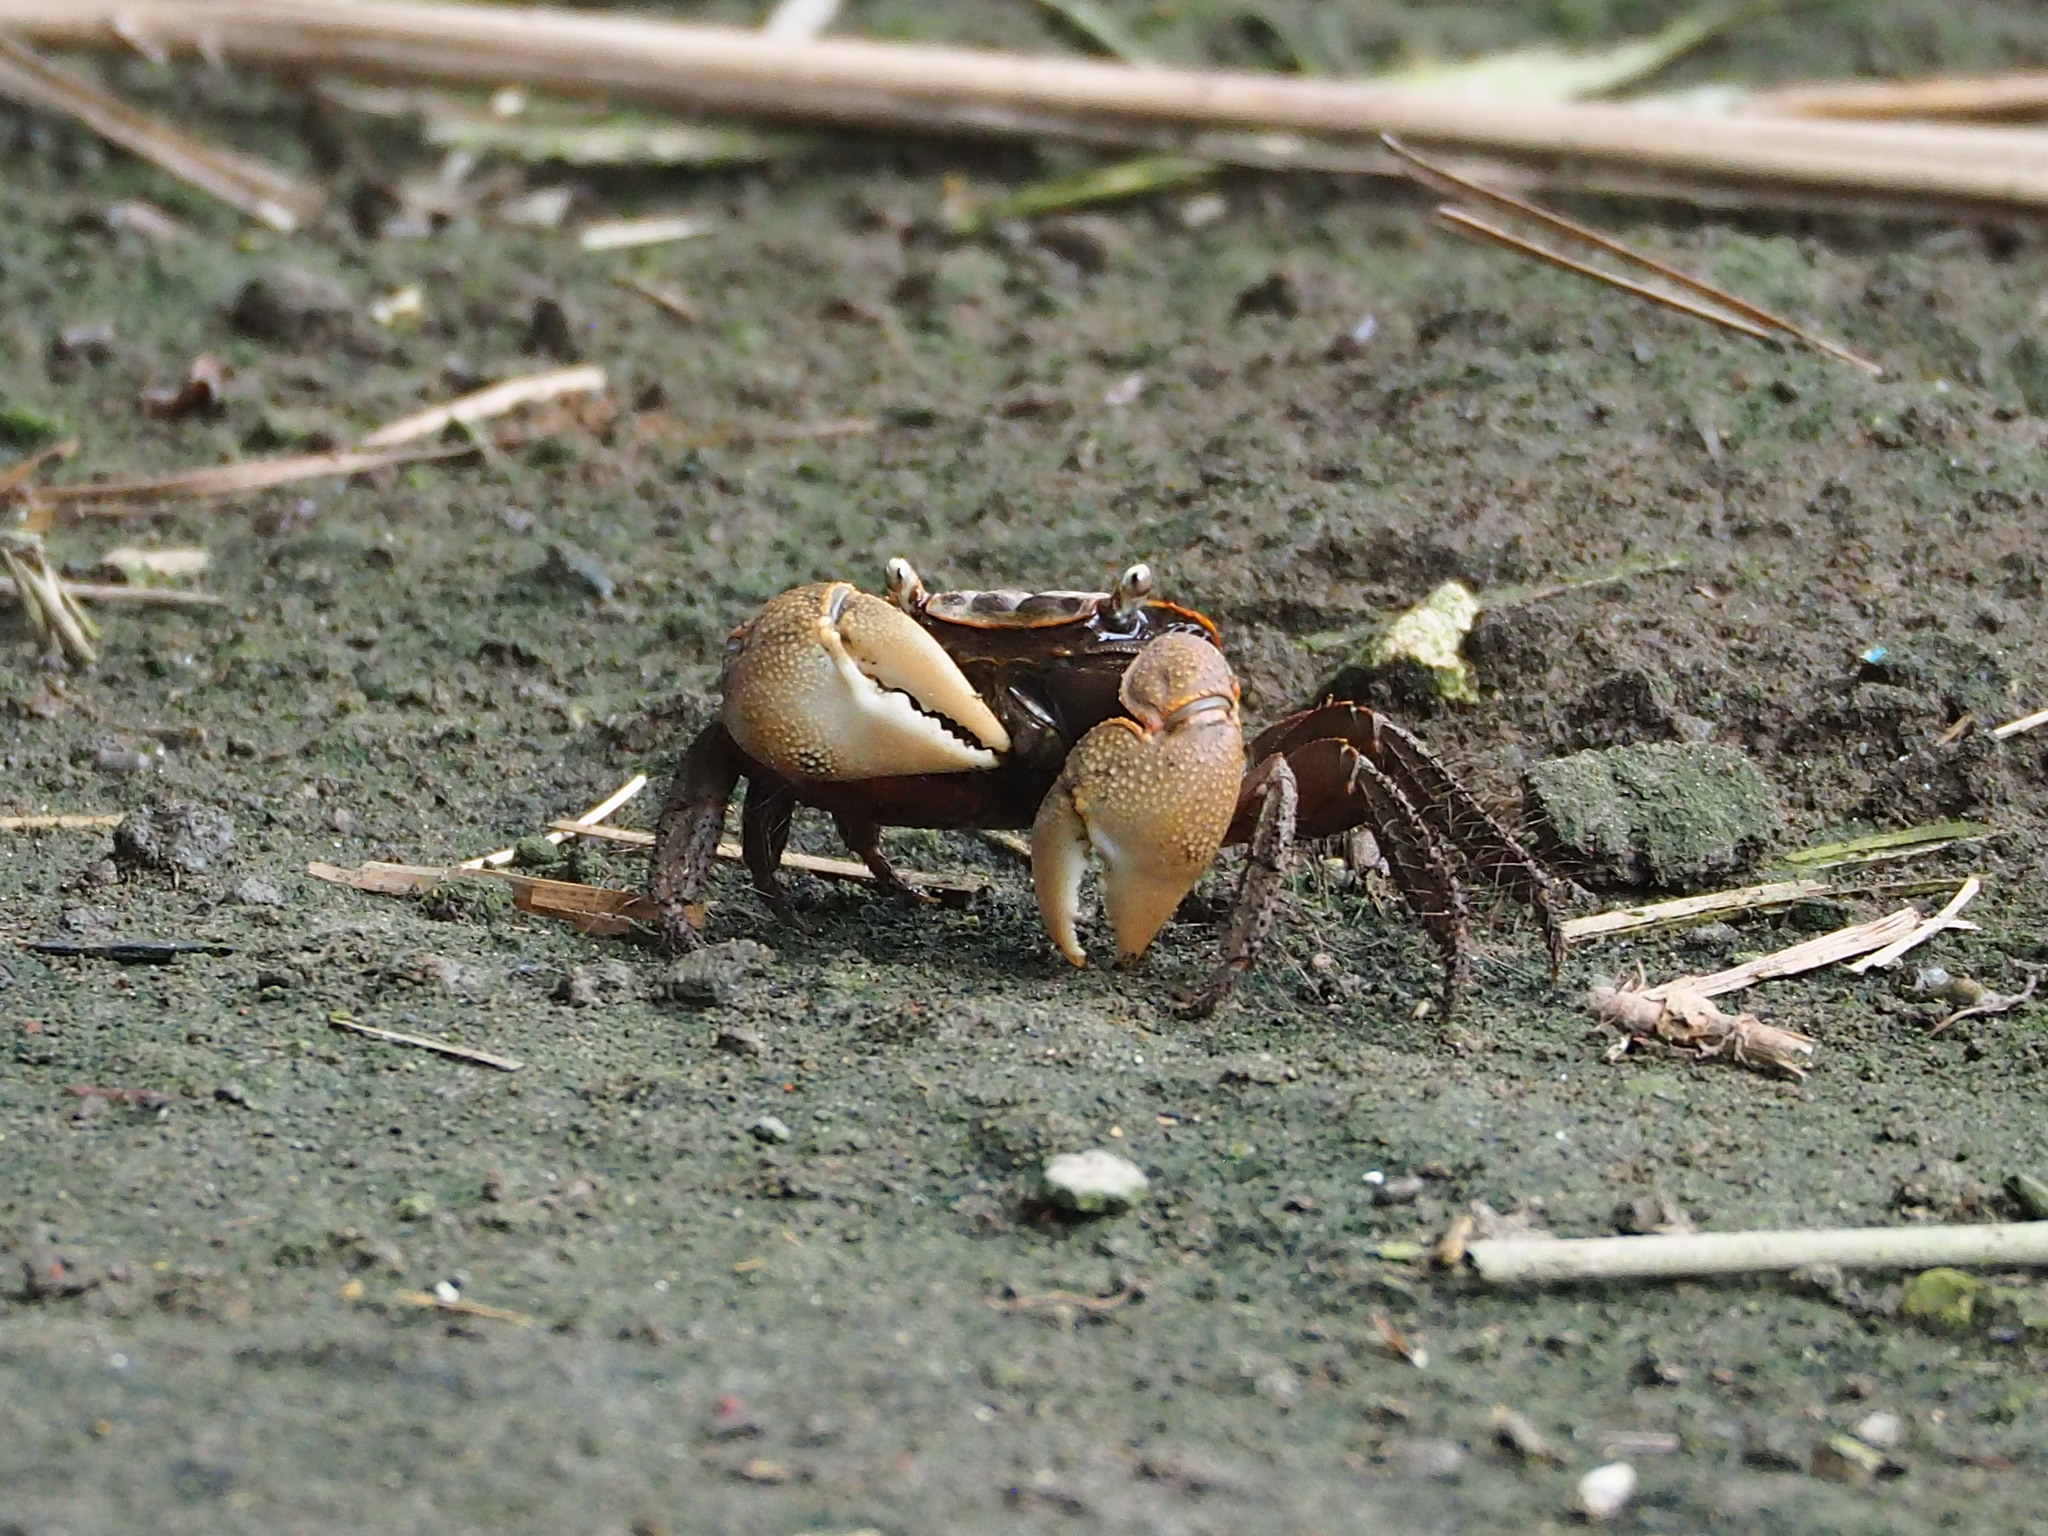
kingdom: Animalia
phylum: Arthropoda
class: Malacostraca
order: Decapoda
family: Sesarmidae
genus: Orisarma
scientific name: Orisarma dehaani
